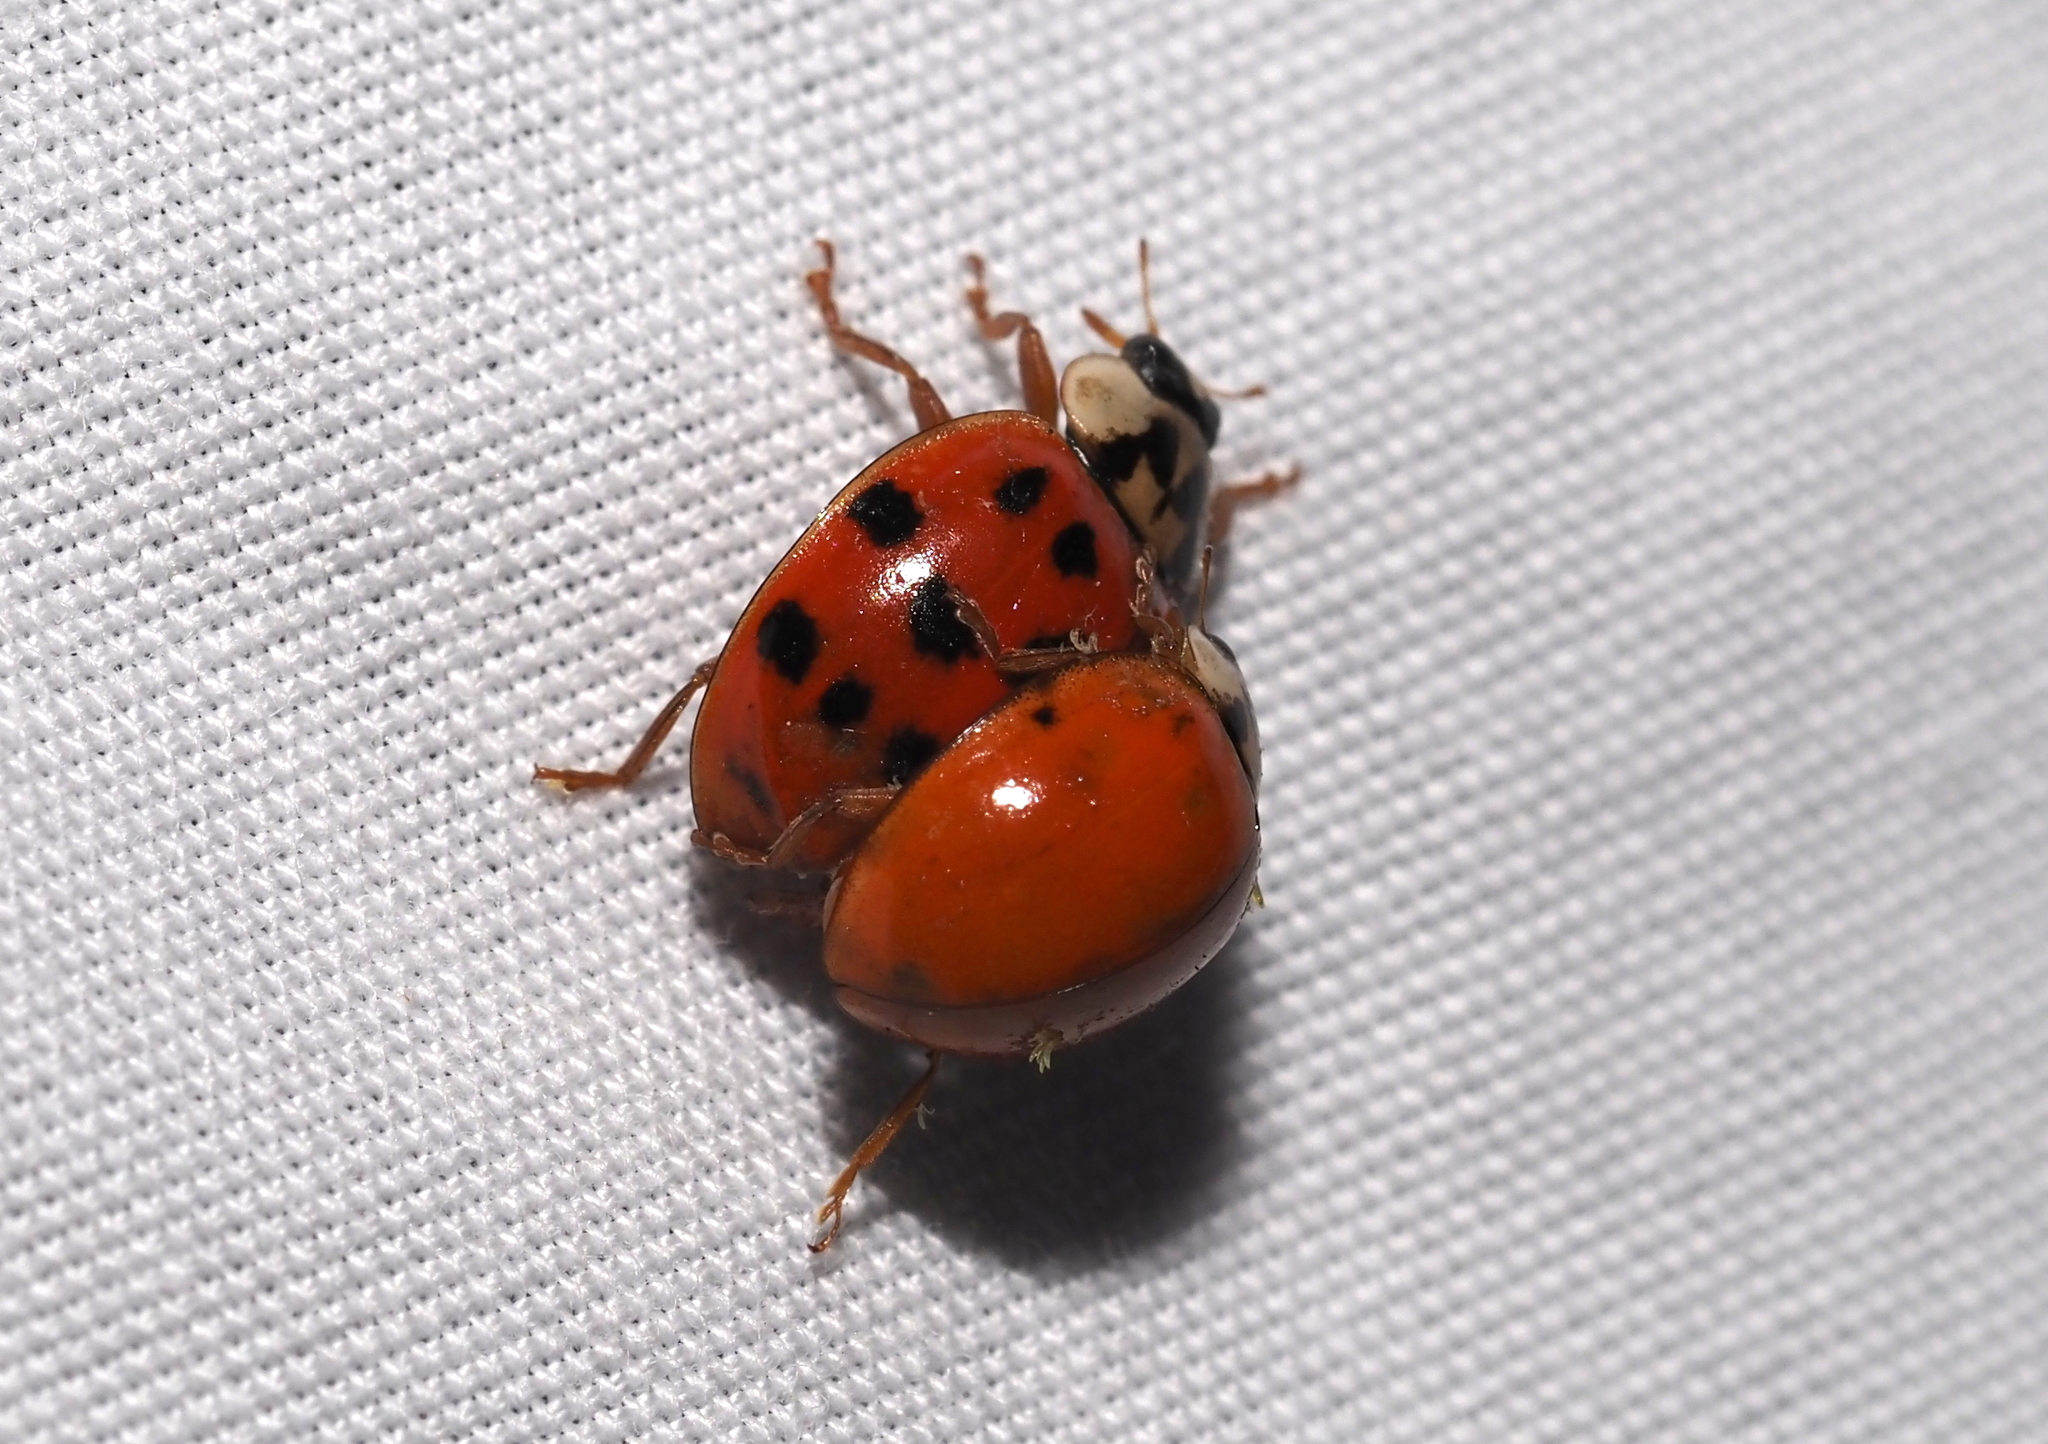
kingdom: Animalia
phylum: Arthropoda
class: Insecta
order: Coleoptera
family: Coccinellidae
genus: Harmonia
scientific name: Harmonia axyridis
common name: Harlequin ladybird
